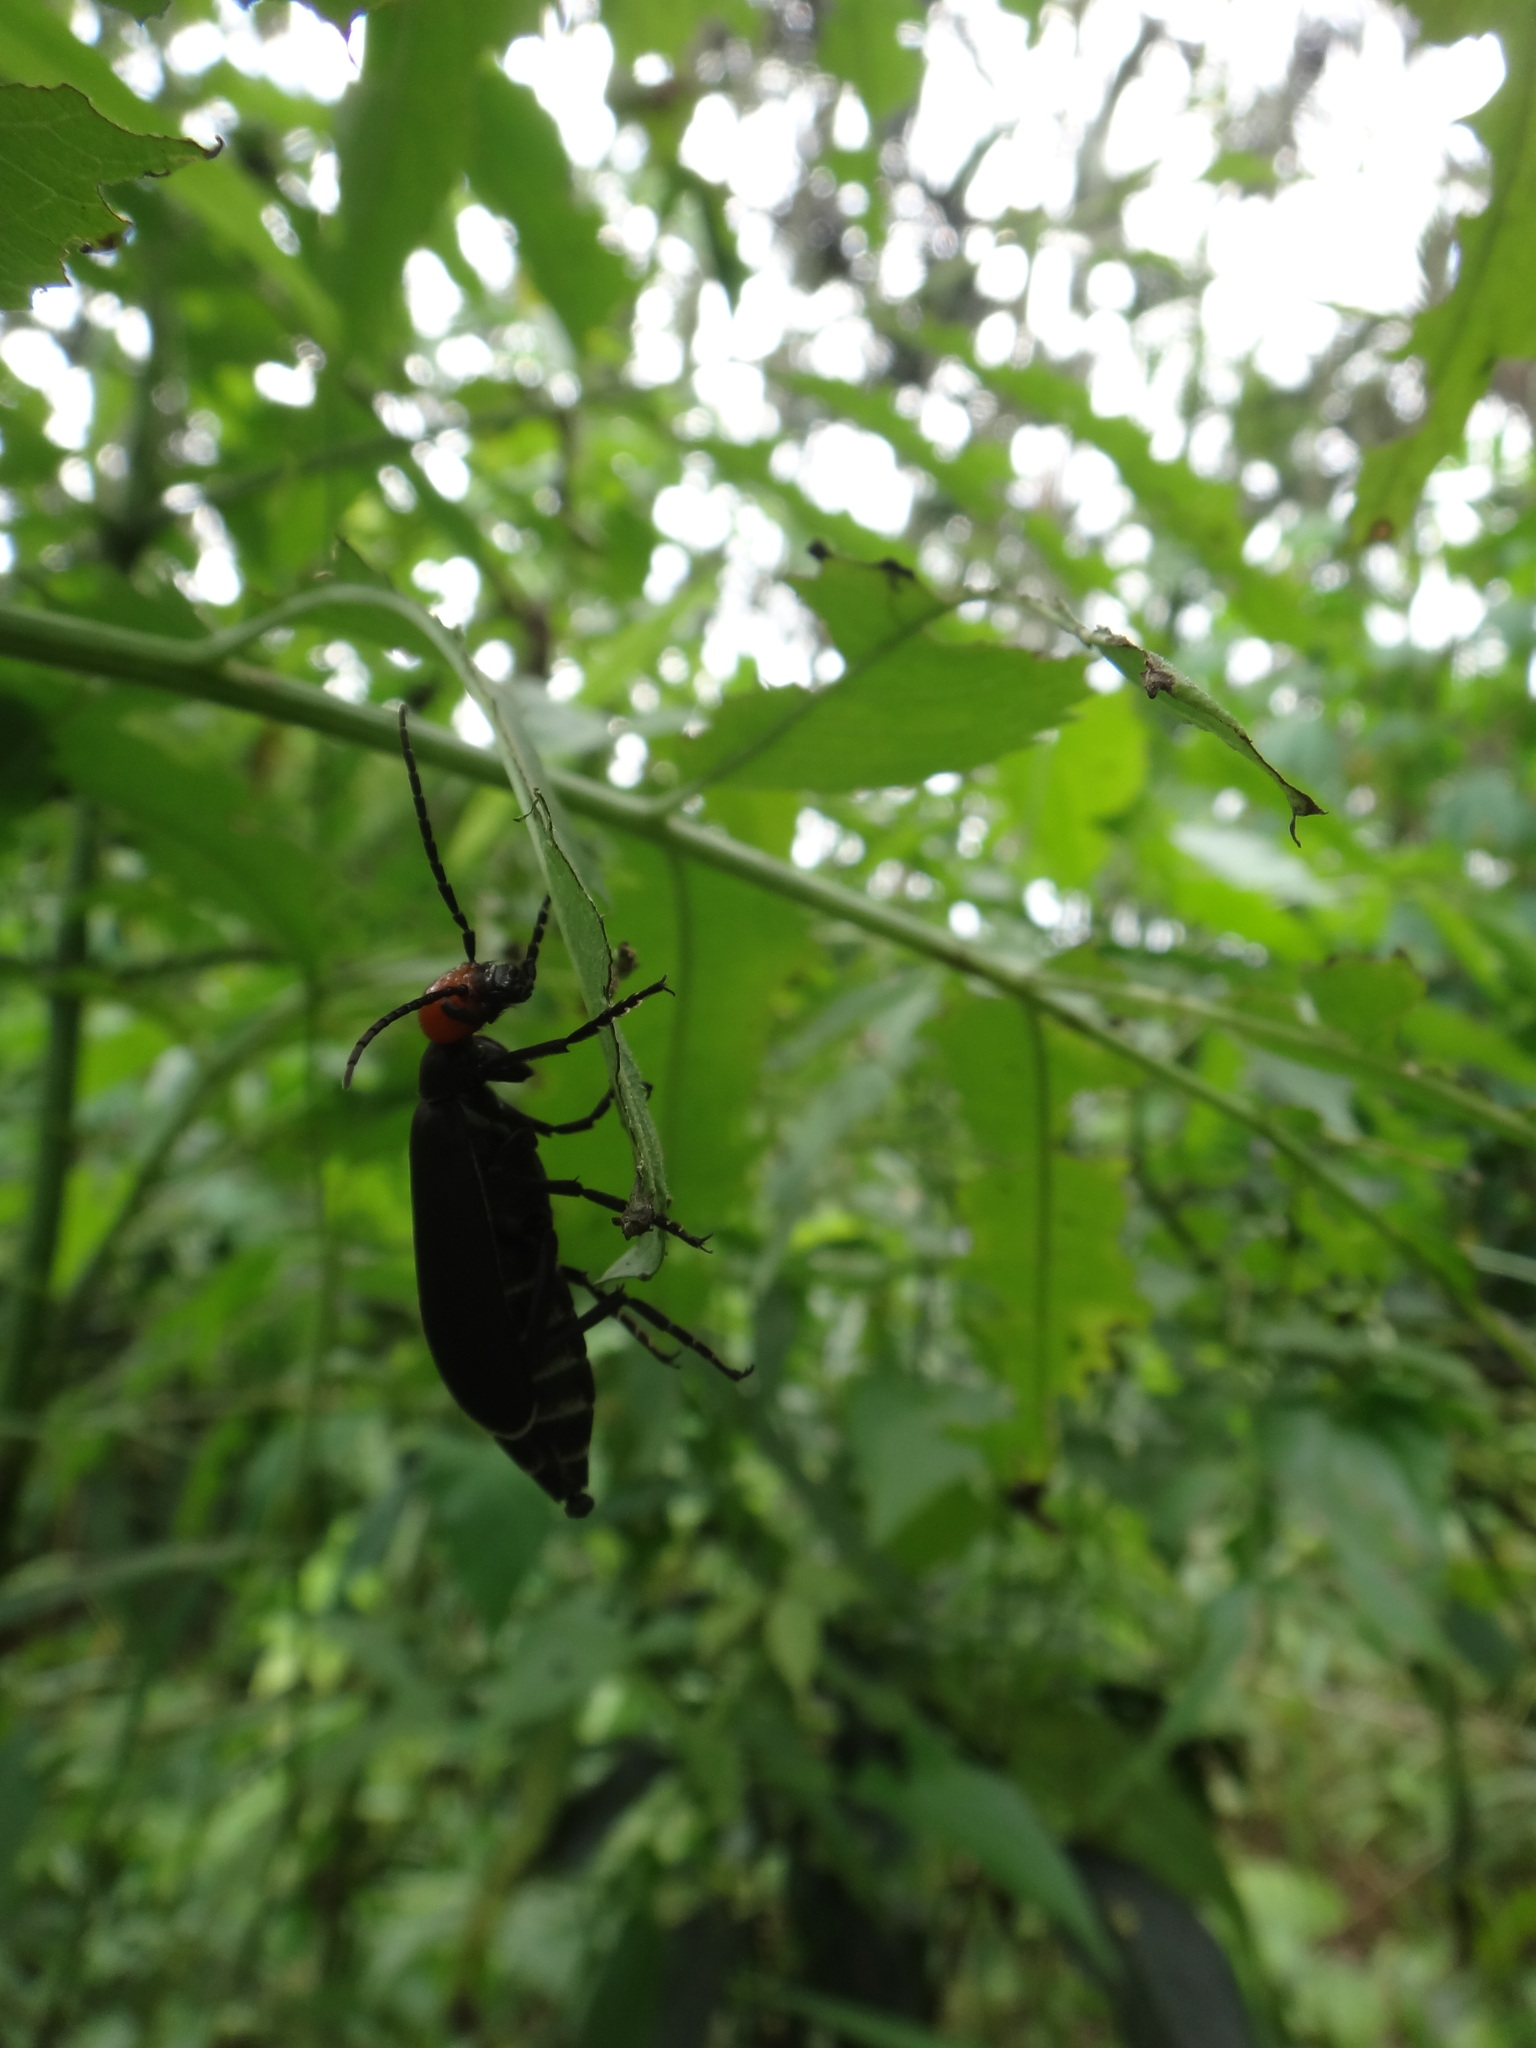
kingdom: Animalia
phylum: Arthropoda
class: Insecta
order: Coleoptera
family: Meloidae
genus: Epicauta
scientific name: Epicauta hirticornis
